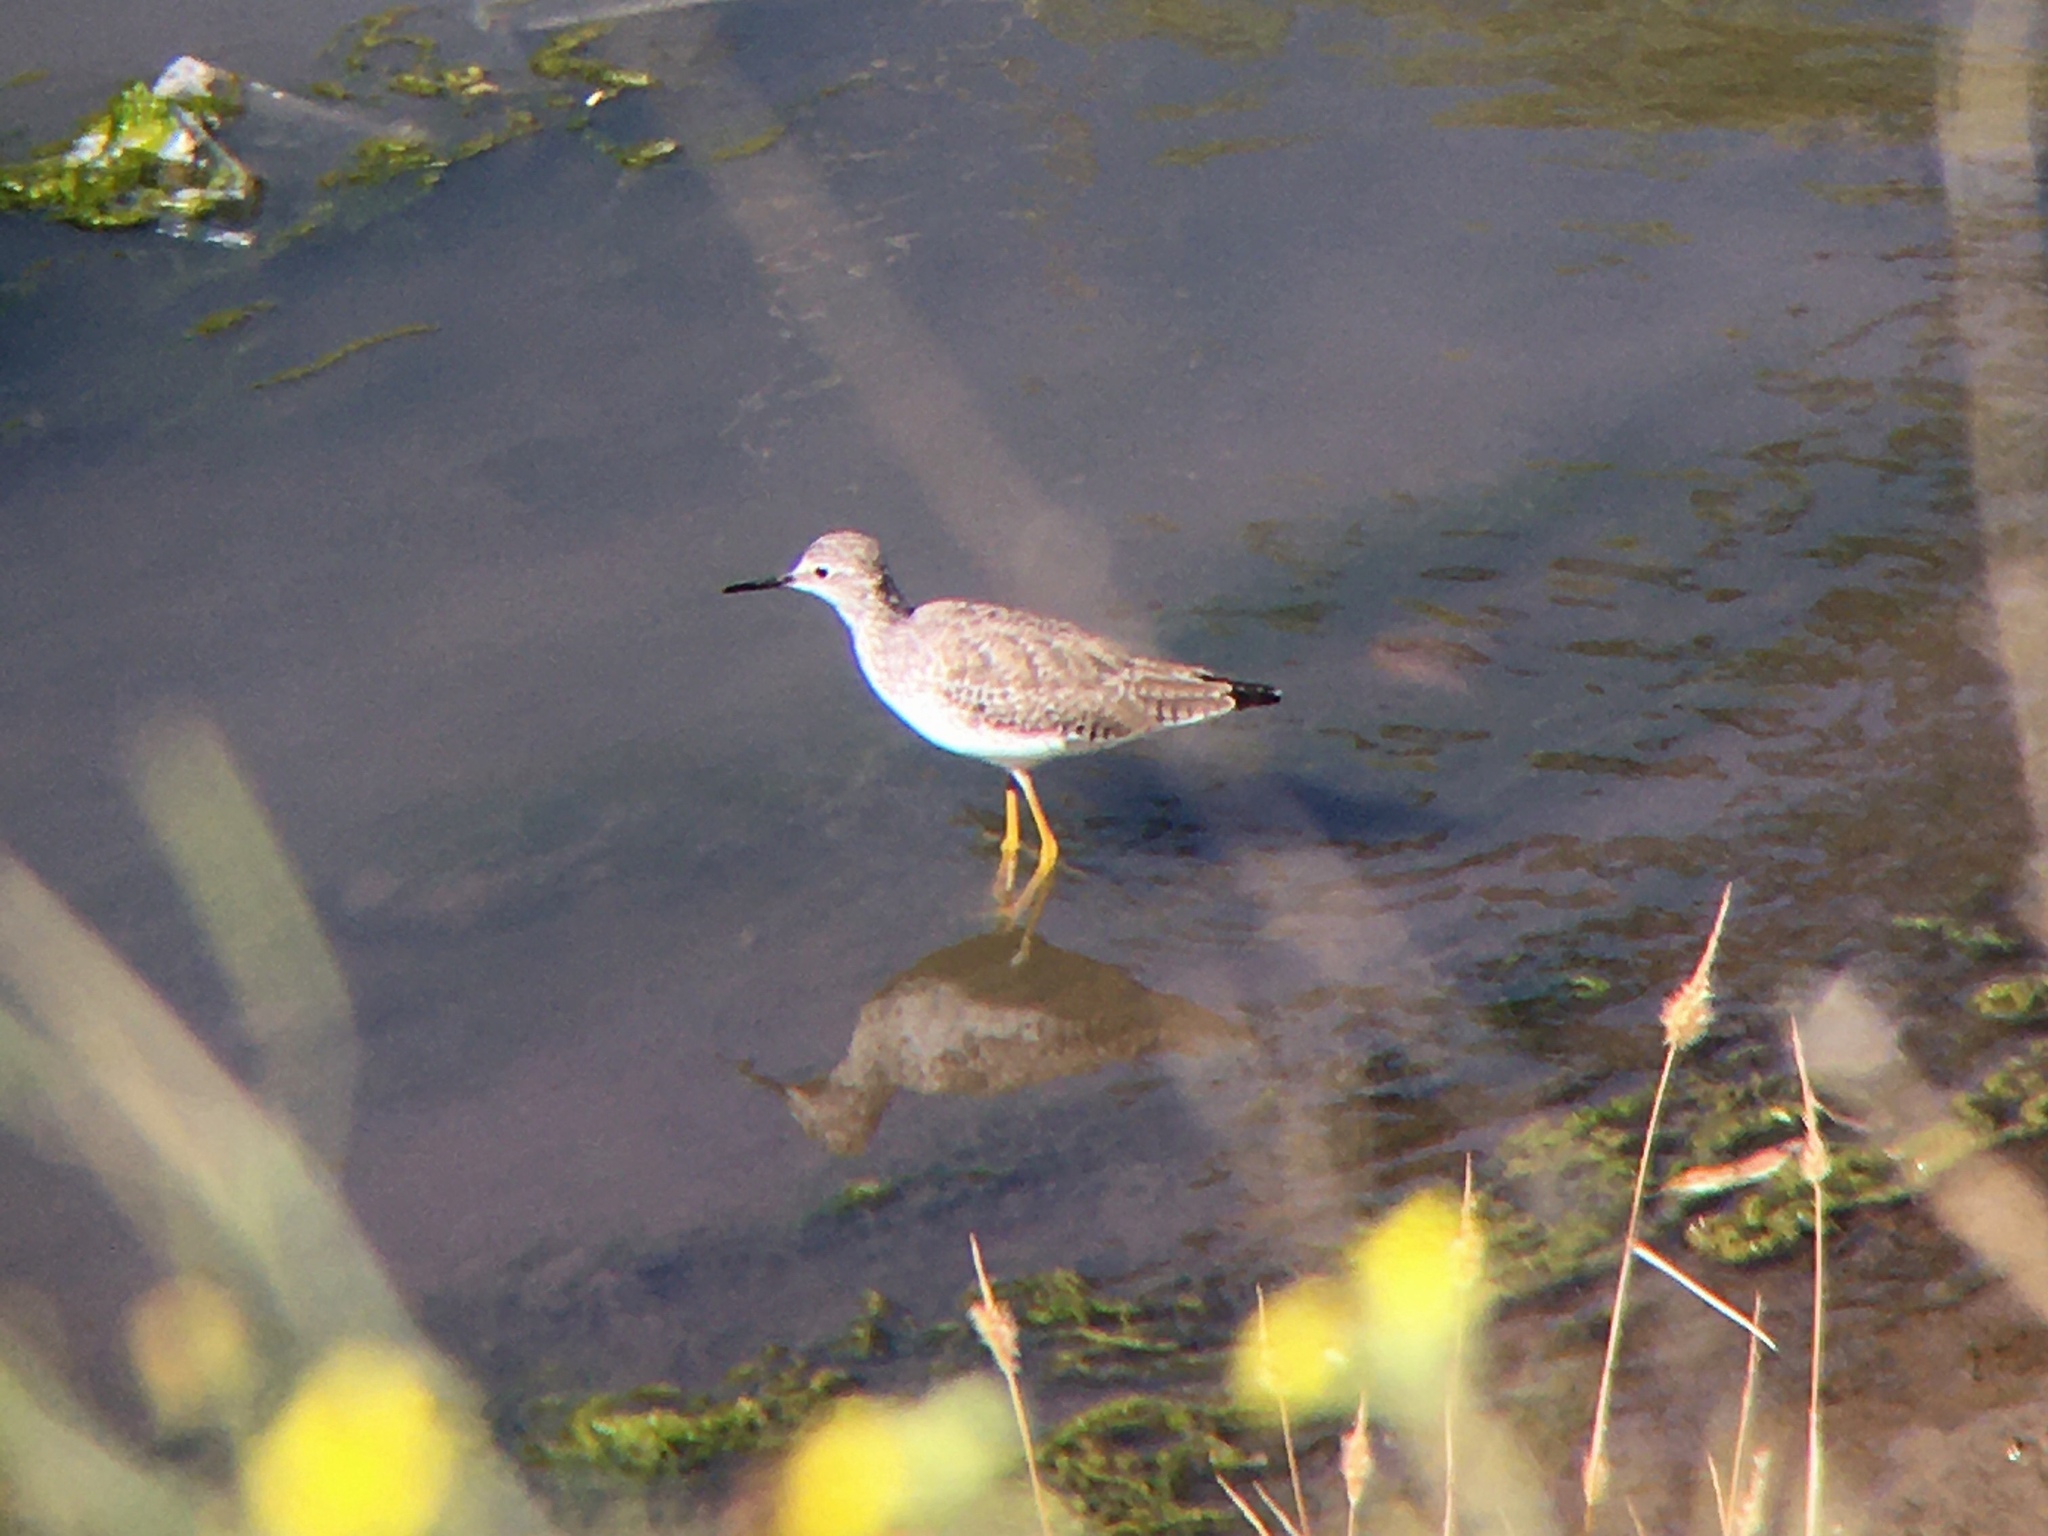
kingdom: Animalia
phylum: Chordata
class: Aves
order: Charadriiformes
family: Scolopacidae
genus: Tringa
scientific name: Tringa flavipes
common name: Lesser yellowlegs
